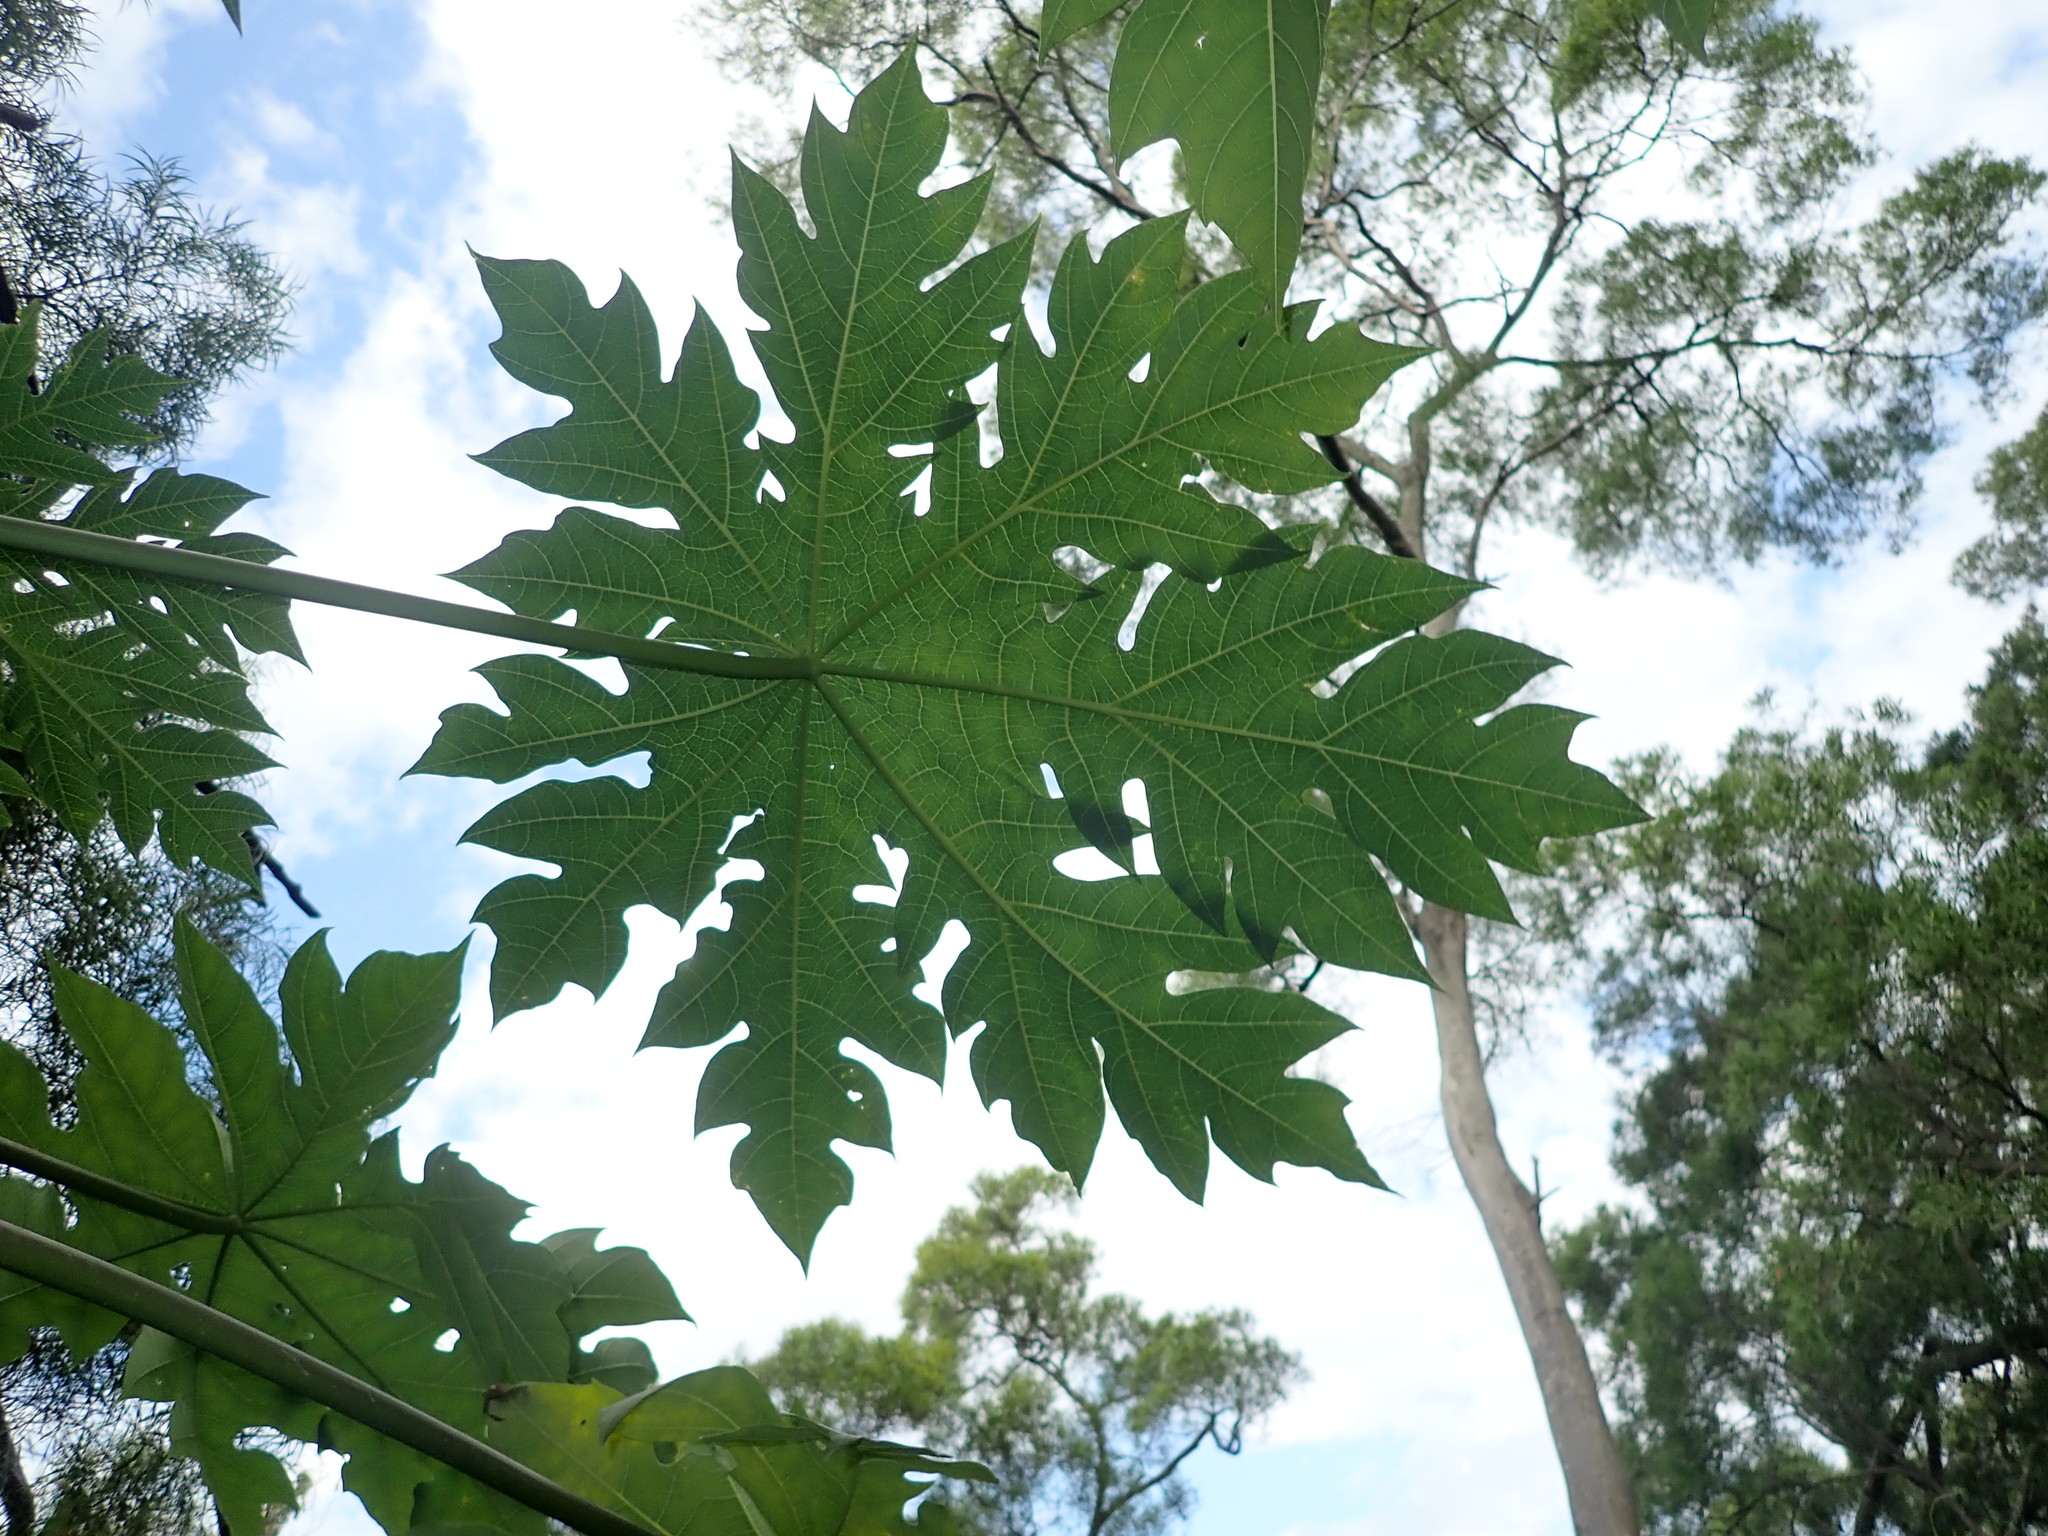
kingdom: Plantae
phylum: Tracheophyta
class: Magnoliopsida
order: Brassicales
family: Caricaceae
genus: Carica
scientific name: Carica papaya
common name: Papaya
